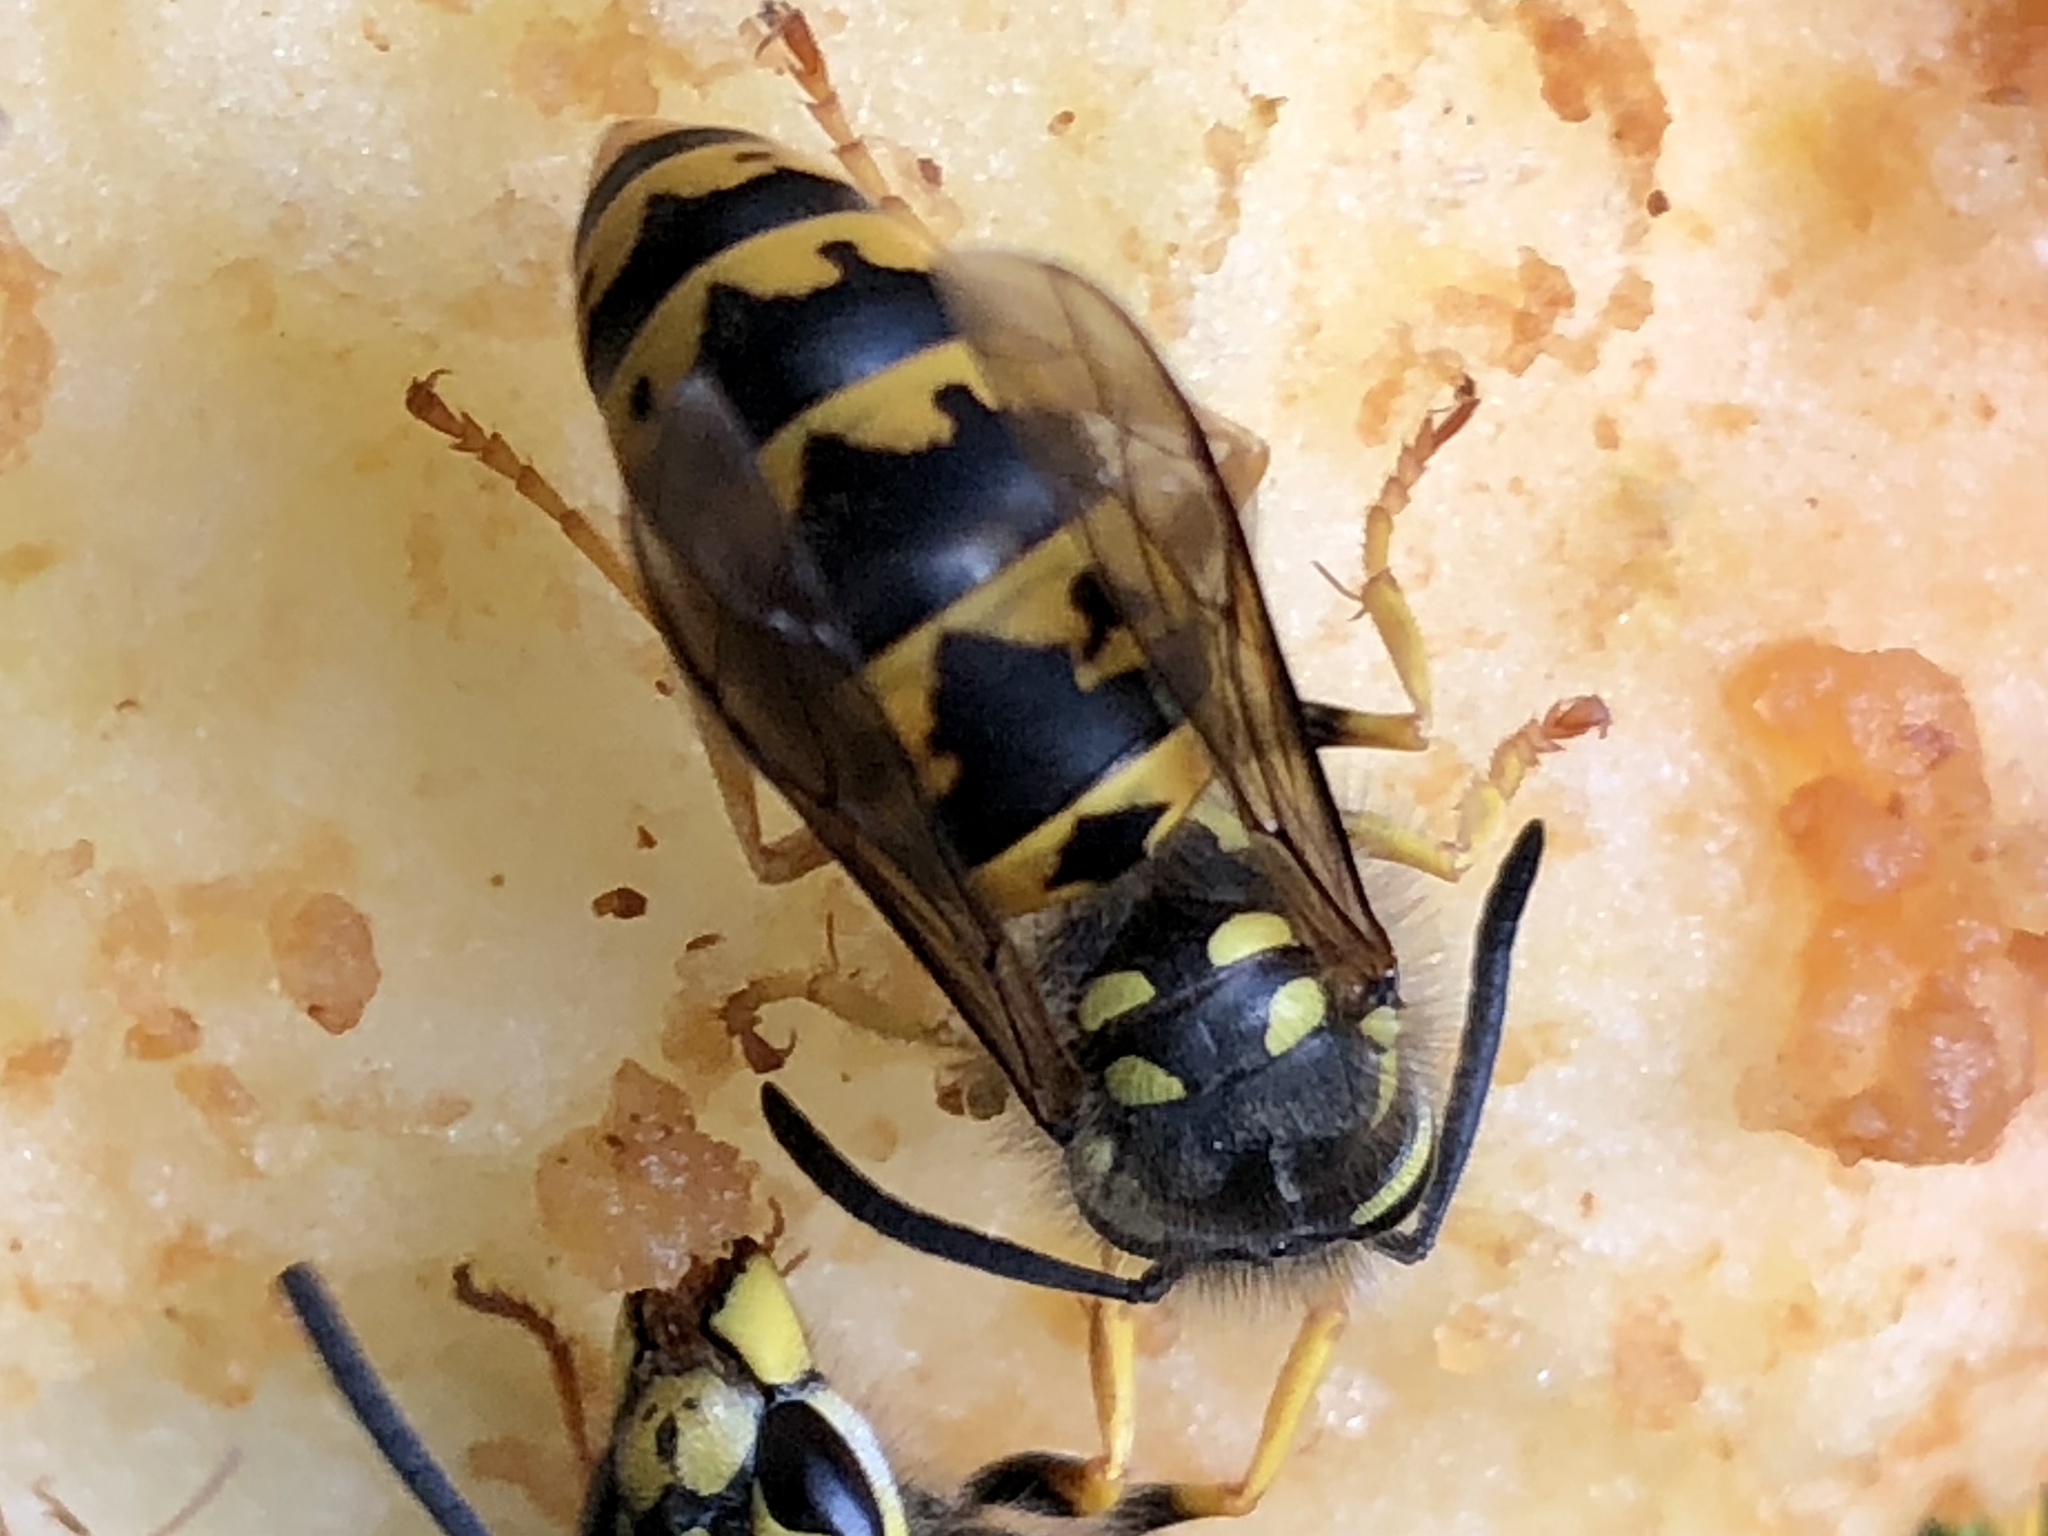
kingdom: Animalia
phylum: Arthropoda
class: Insecta
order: Hymenoptera
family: Vespidae
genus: Vespula
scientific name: Vespula germanica
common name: German wasp
